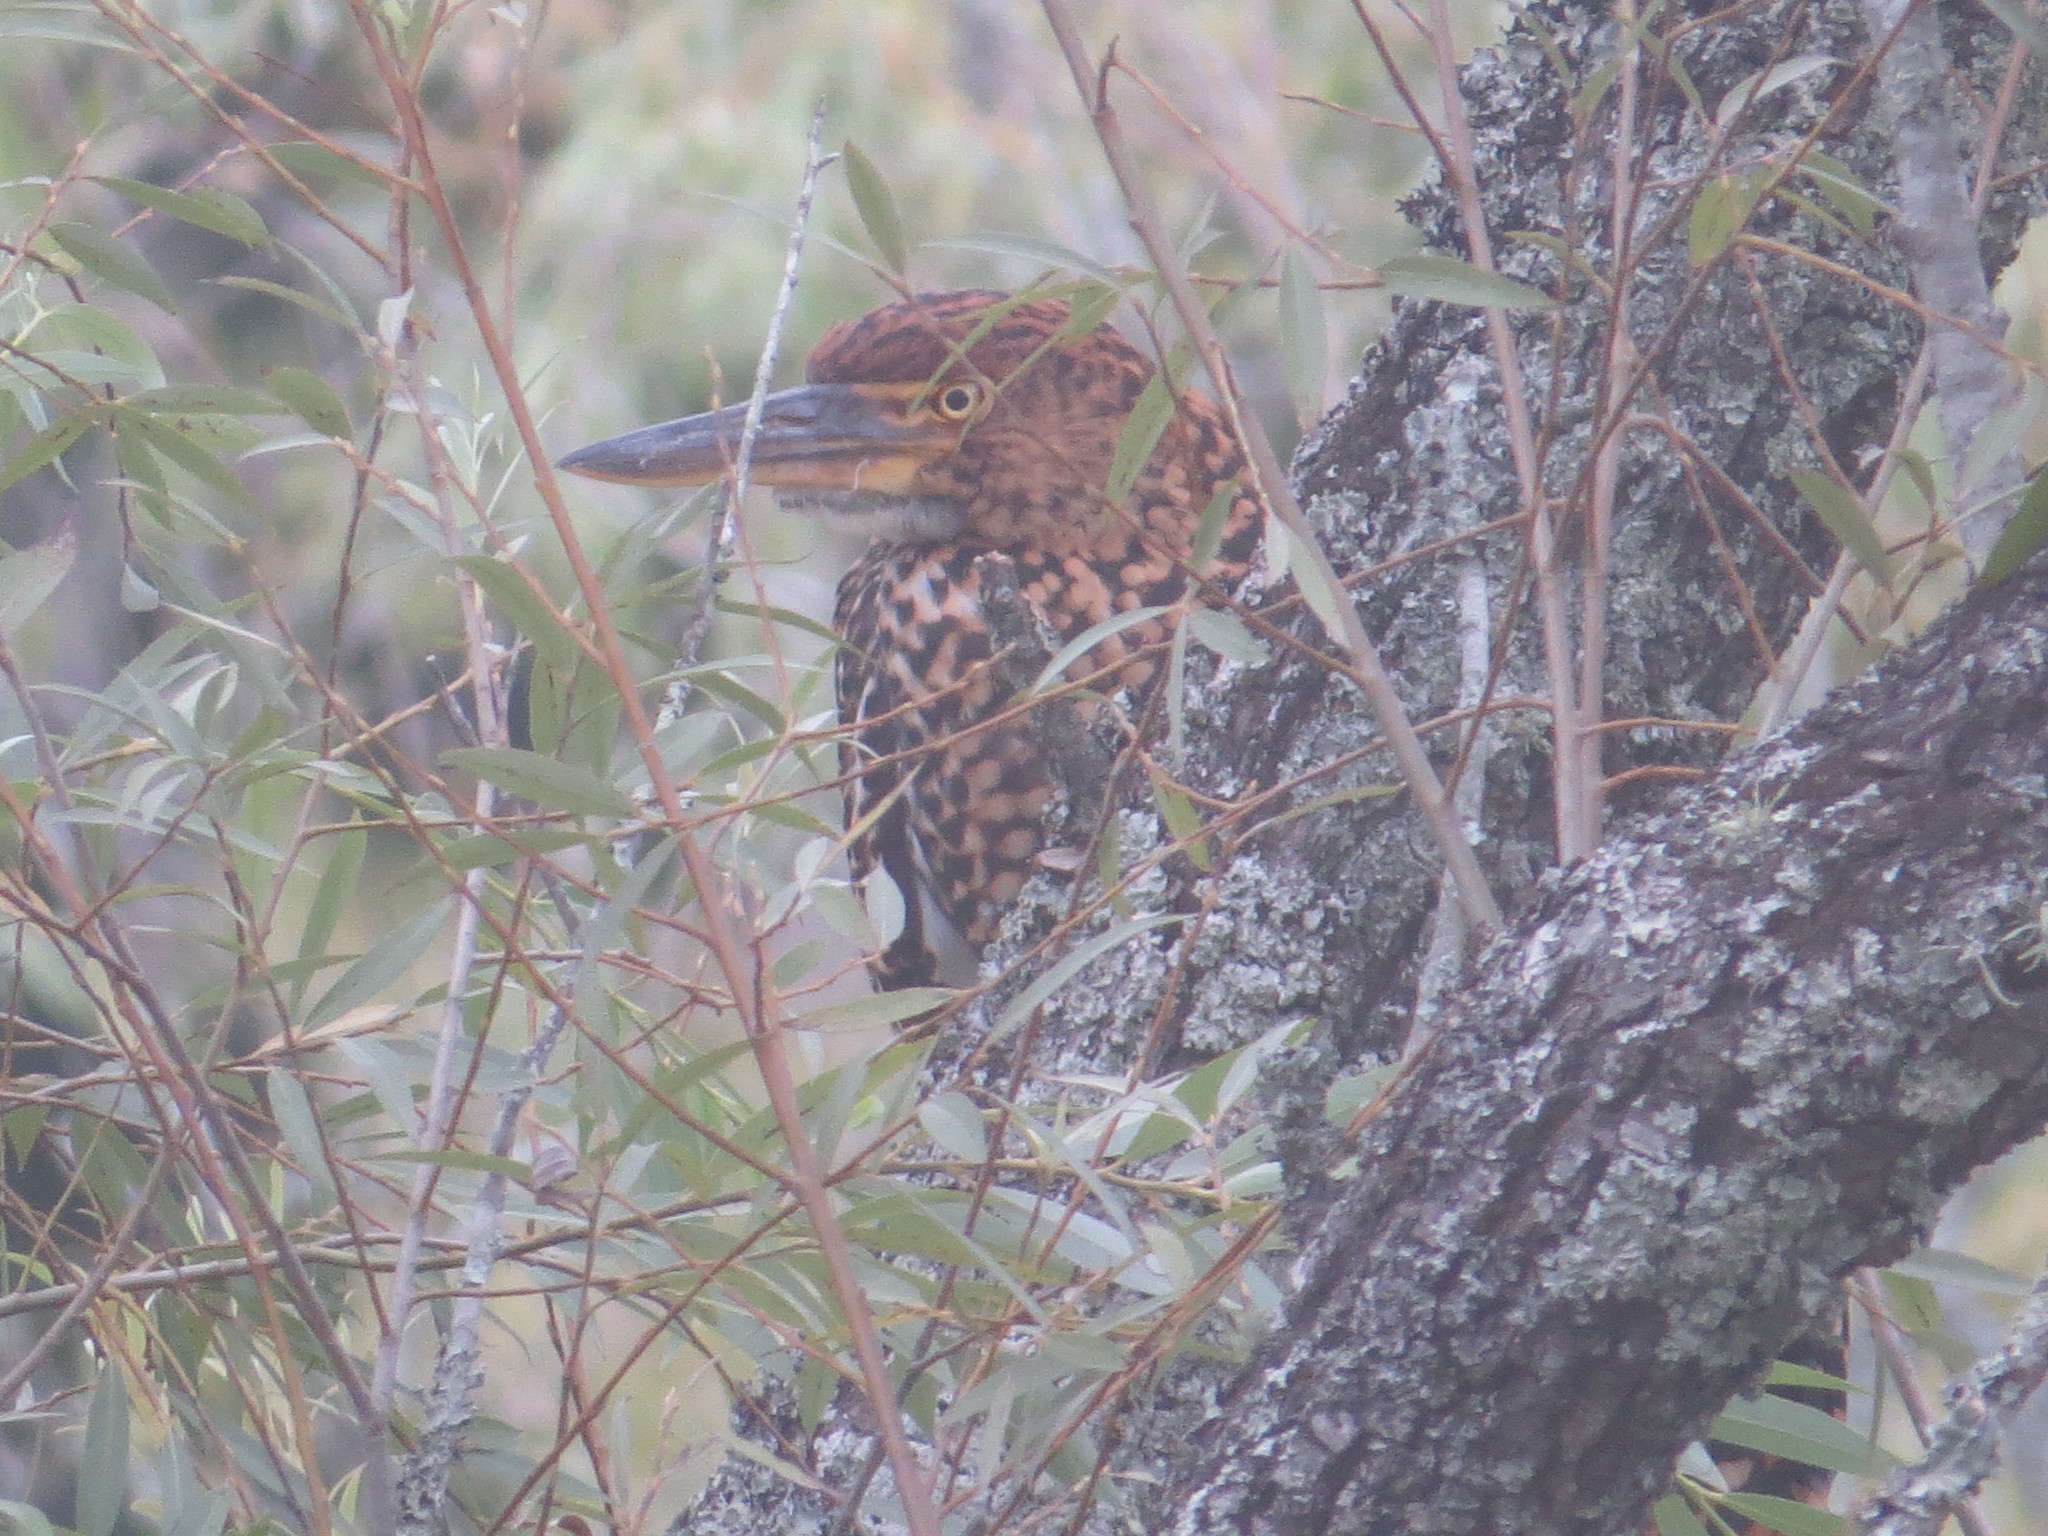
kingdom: Animalia
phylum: Chordata
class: Aves
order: Pelecaniformes
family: Ardeidae
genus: Tigrisoma
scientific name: Tigrisoma lineatum
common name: Rufescent tiger-heron
